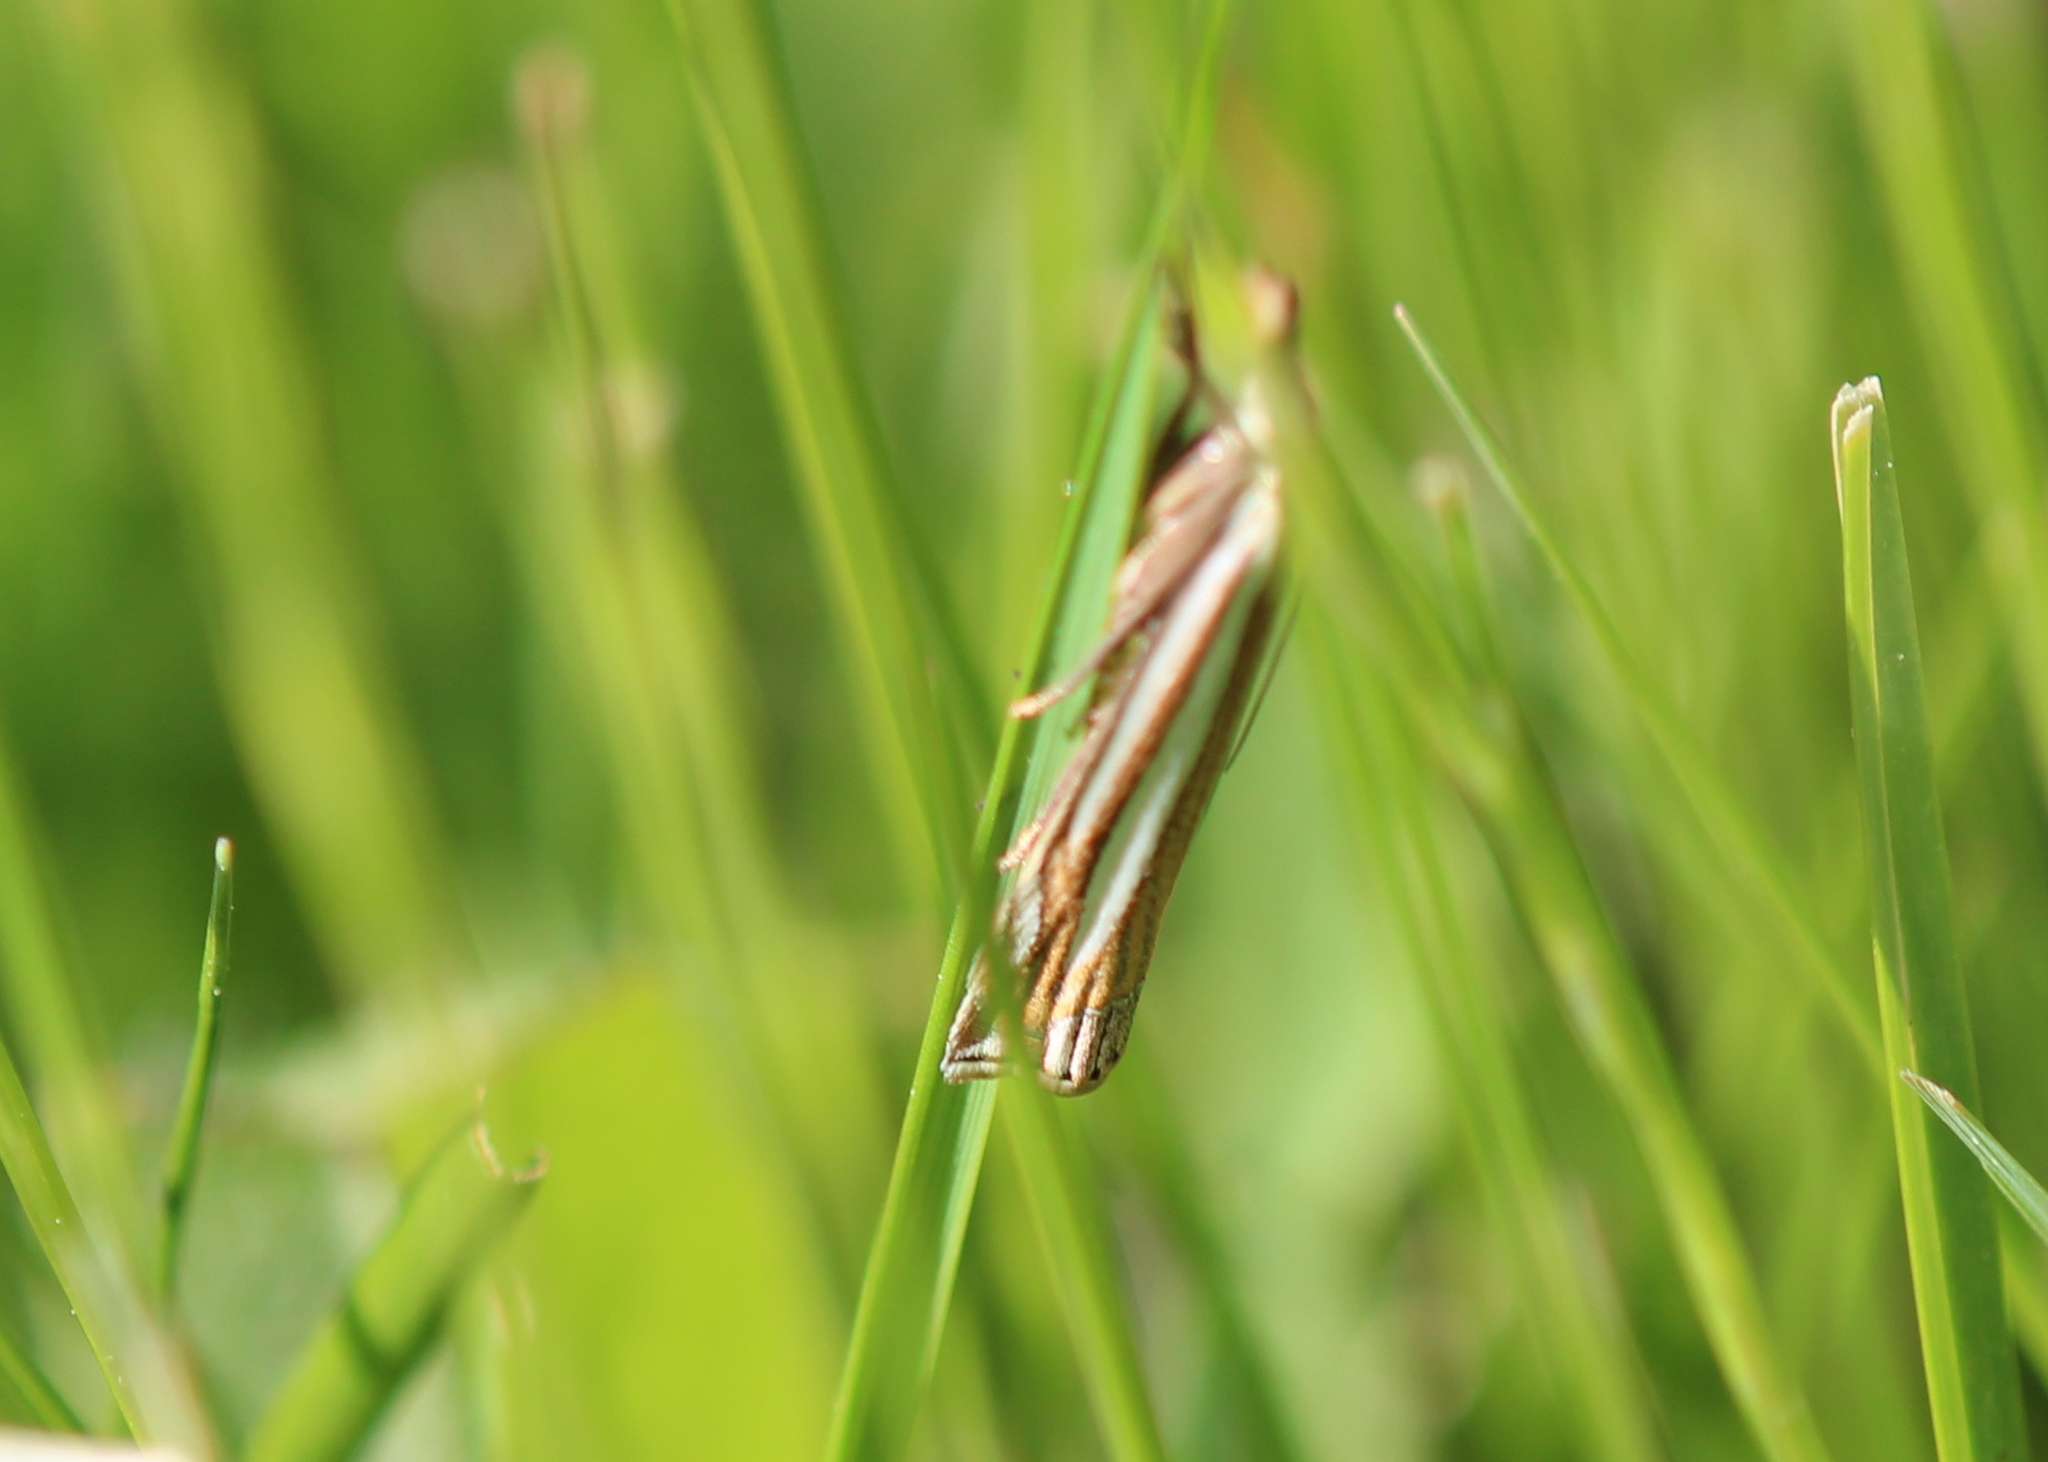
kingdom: Animalia
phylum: Arthropoda
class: Insecta
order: Lepidoptera
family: Crambidae
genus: Crambus
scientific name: Crambus laqueatellus
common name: Eastern grass-veneer
